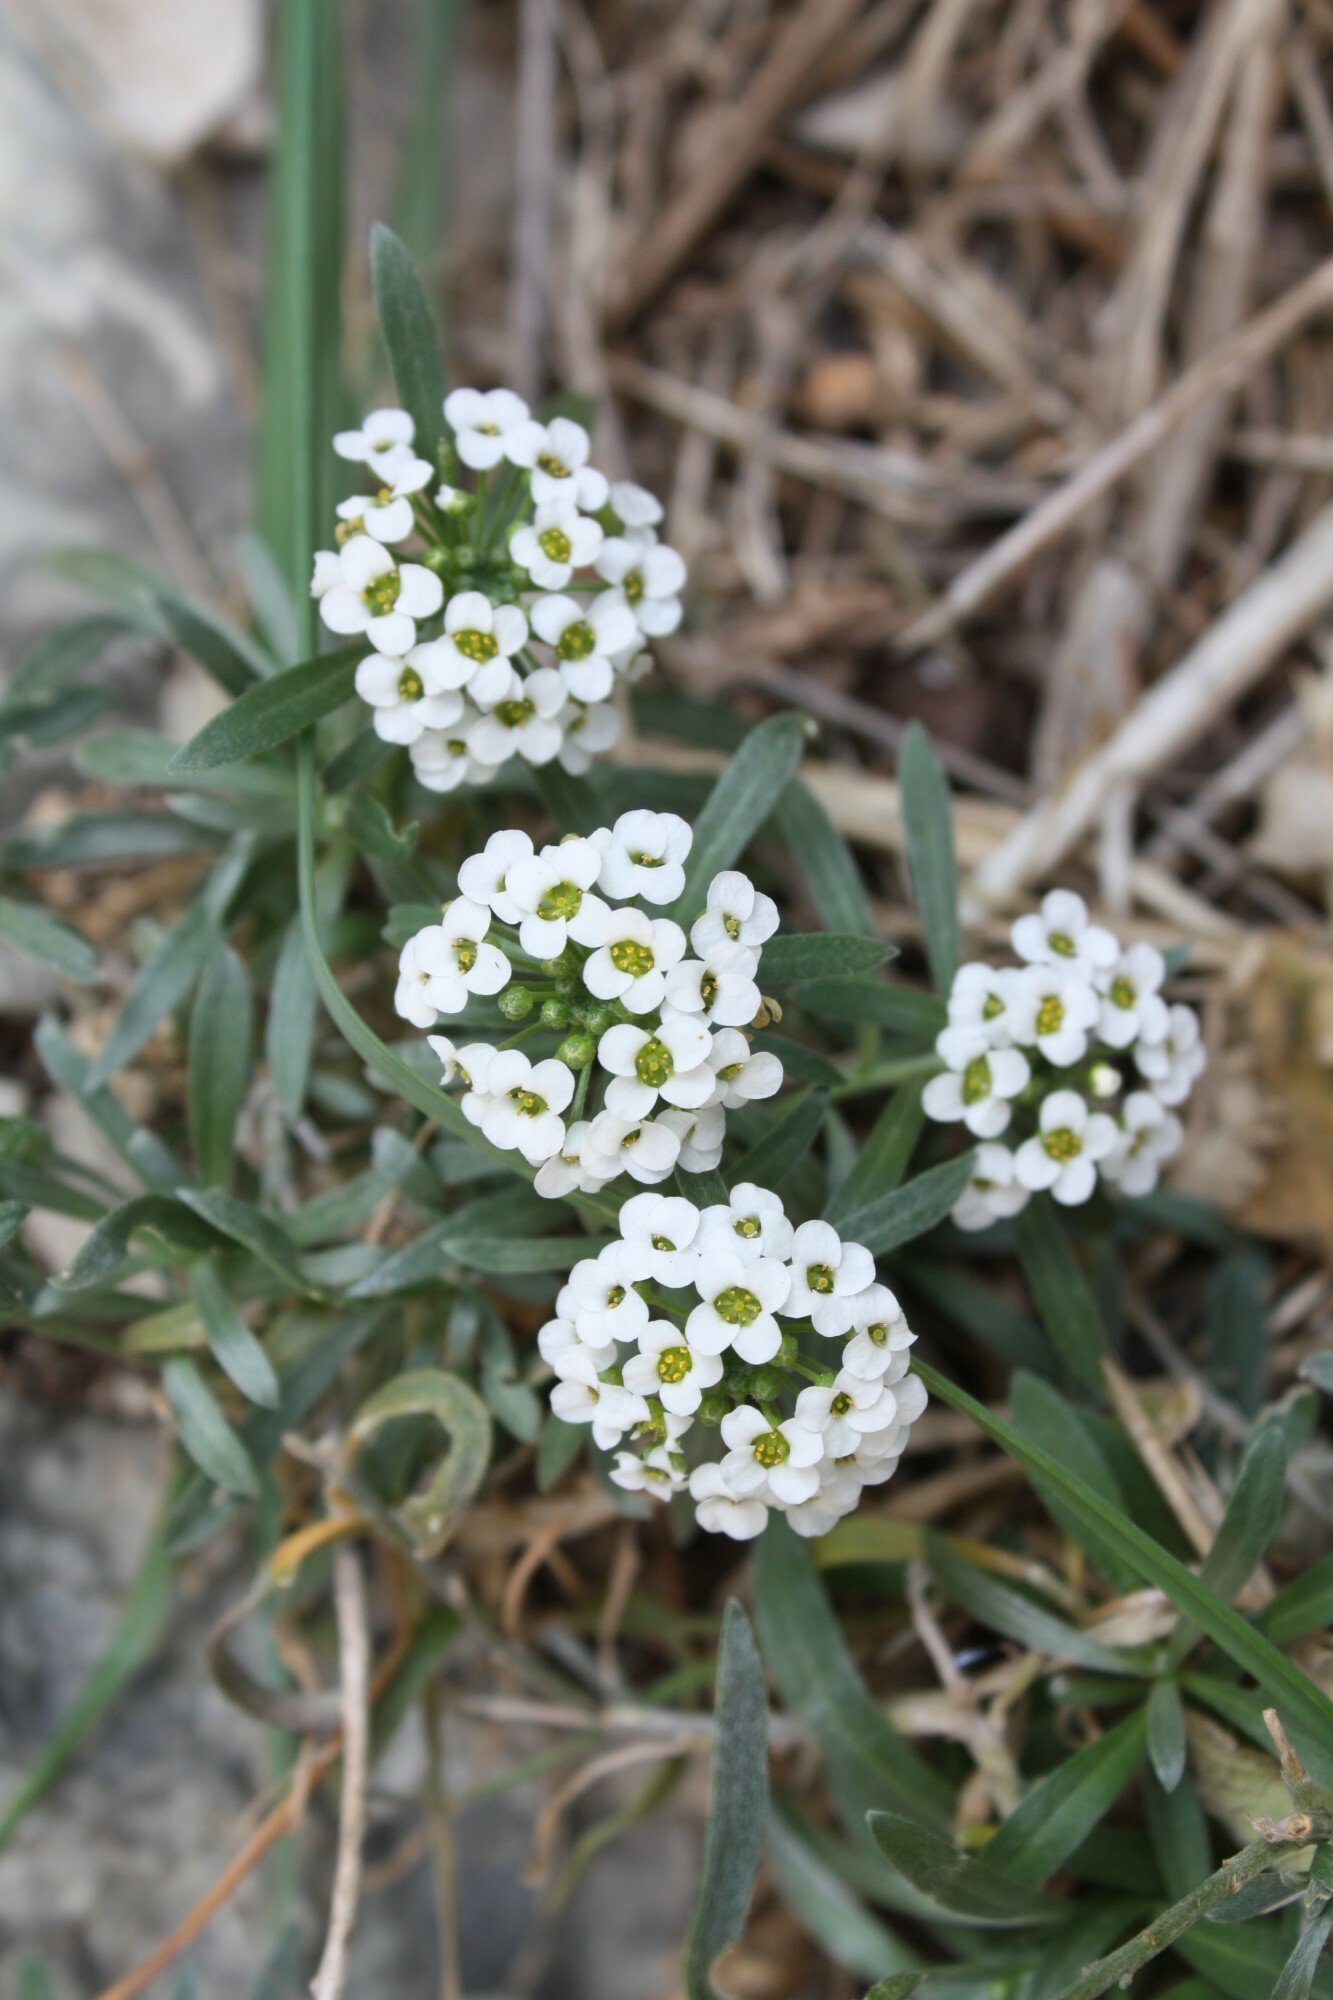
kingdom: Plantae
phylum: Tracheophyta
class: Magnoliopsida
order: Brassicales
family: Brassicaceae
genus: Lobularia
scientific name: Lobularia maritima
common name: Sweet alison
